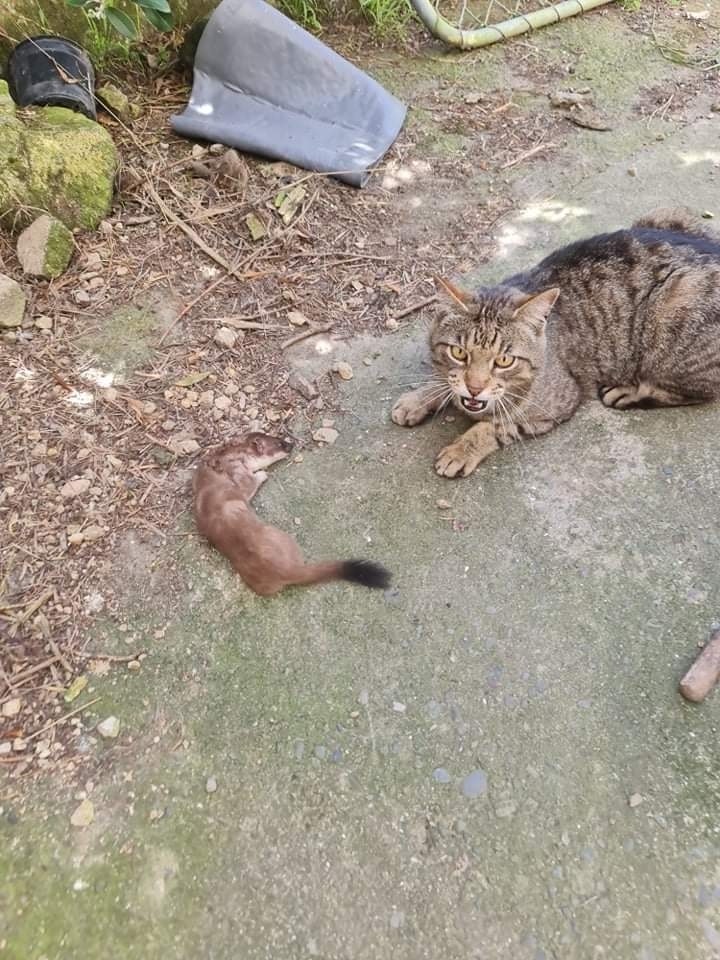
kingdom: Animalia
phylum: Chordata
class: Mammalia
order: Carnivora
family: Mustelidae
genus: Mustela
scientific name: Mustela erminea
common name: Stoat
